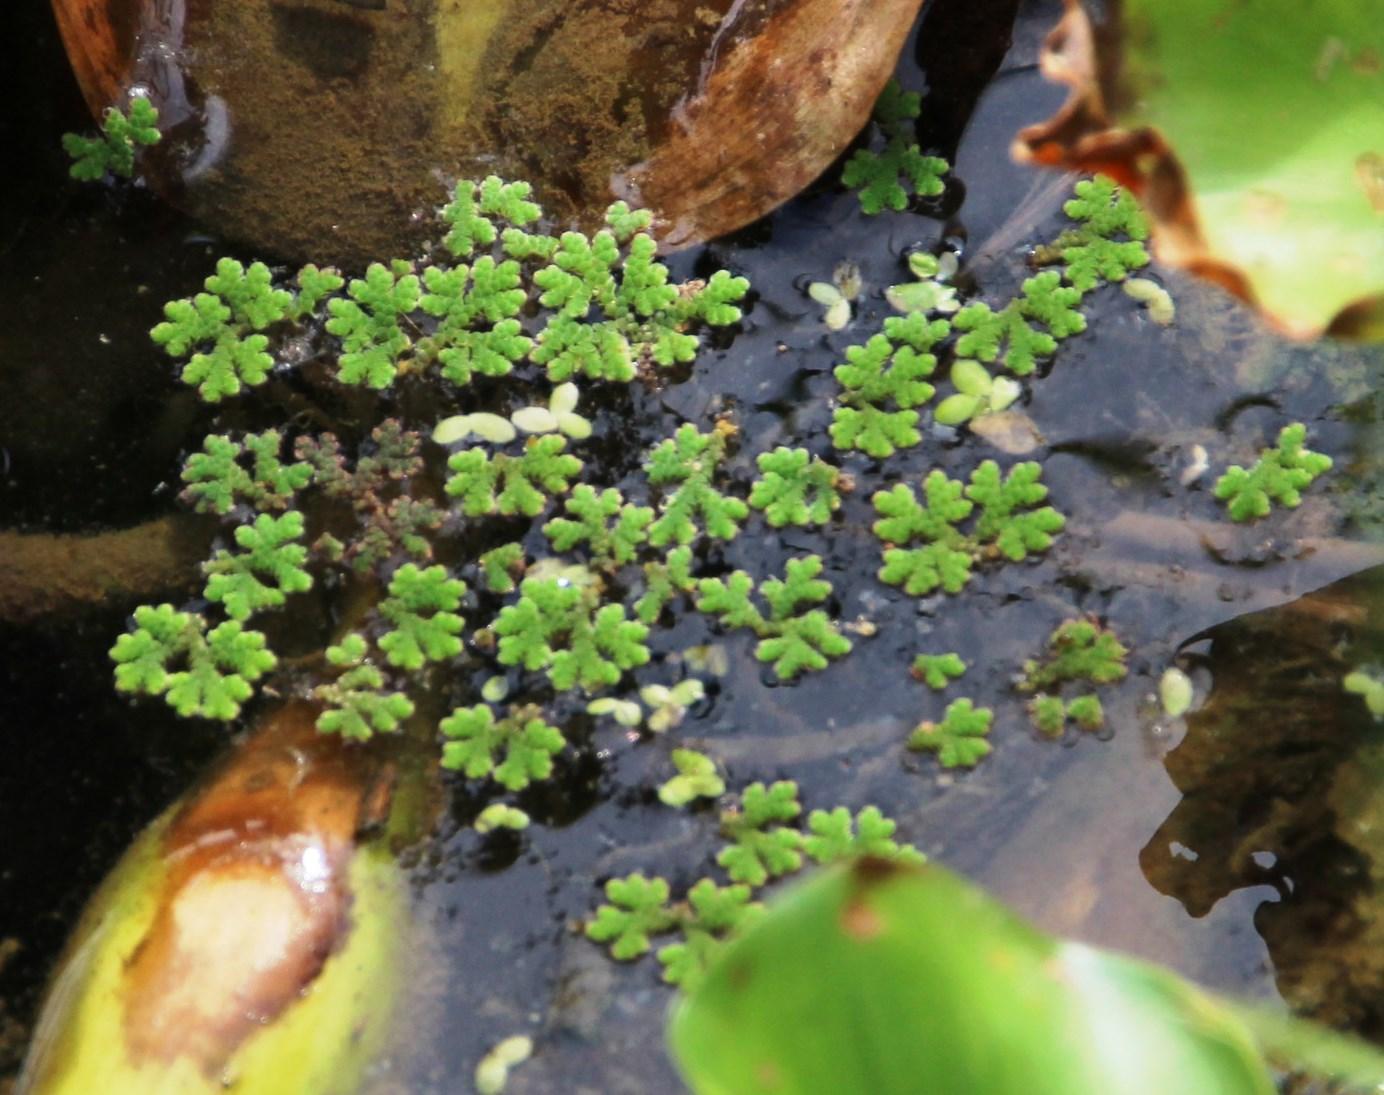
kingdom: Plantae
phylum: Tracheophyta
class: Polypodiopsida
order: Salviniales
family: Salviniaceae
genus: Azolla
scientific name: Azolla filiculoides
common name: Water fern
